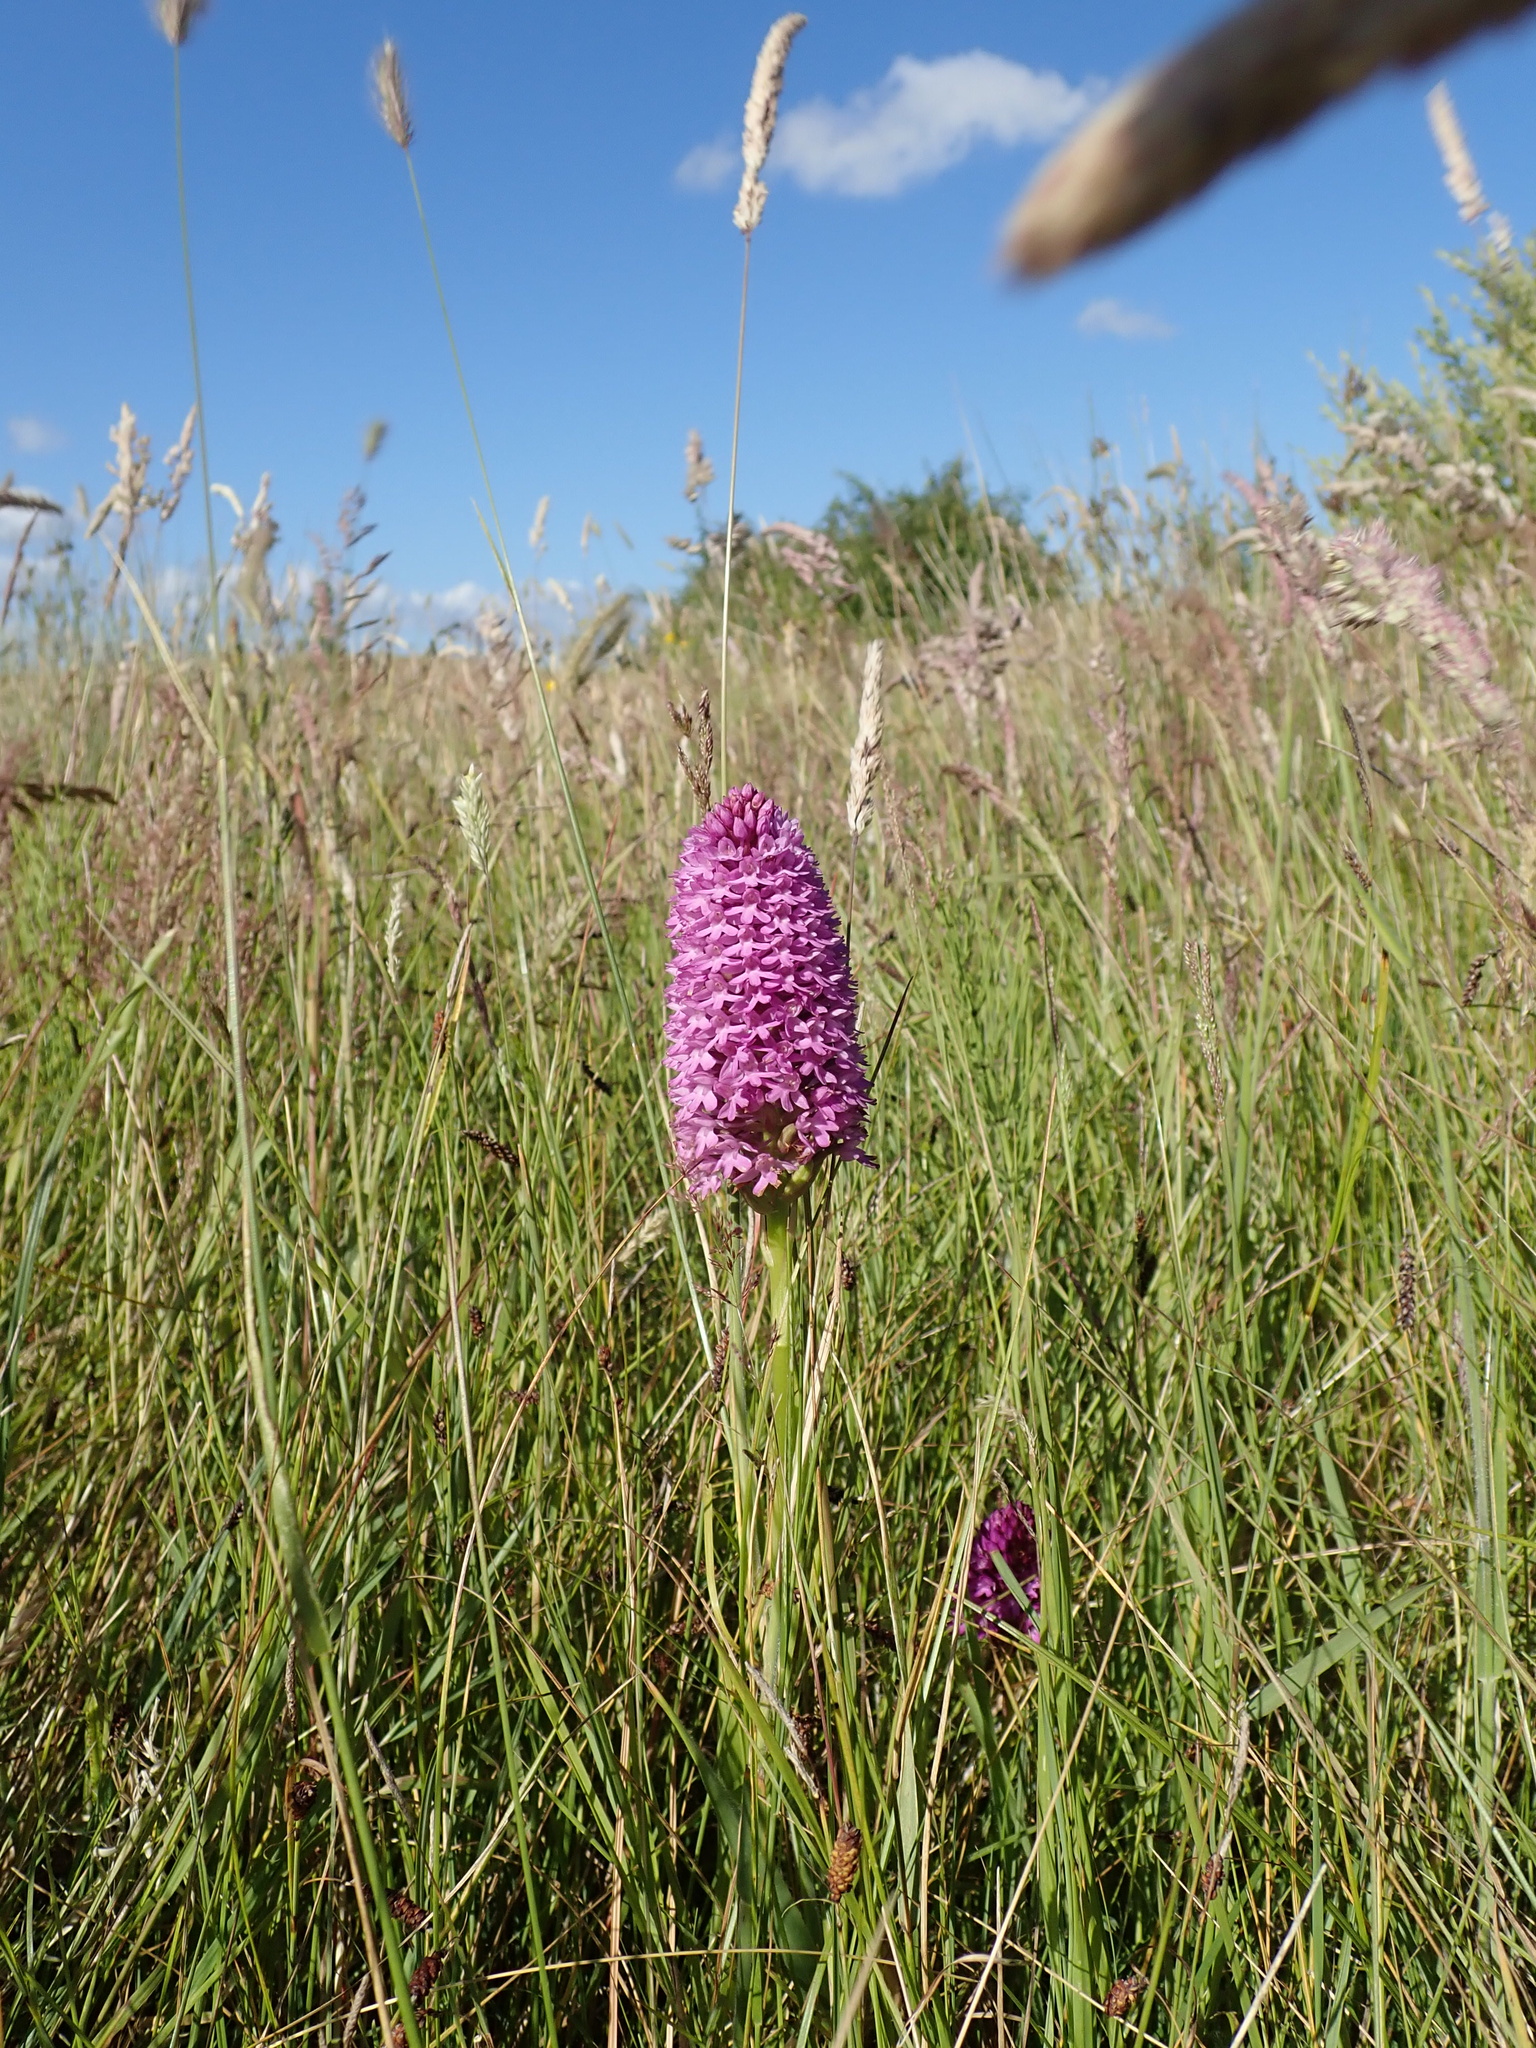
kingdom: Plantae
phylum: Tracheophyta
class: Liliopsida
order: Asparagales
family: Orchidaceae
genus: Anacamptis
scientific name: Anacamptis pyramidalis
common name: Pyramidal orchid
